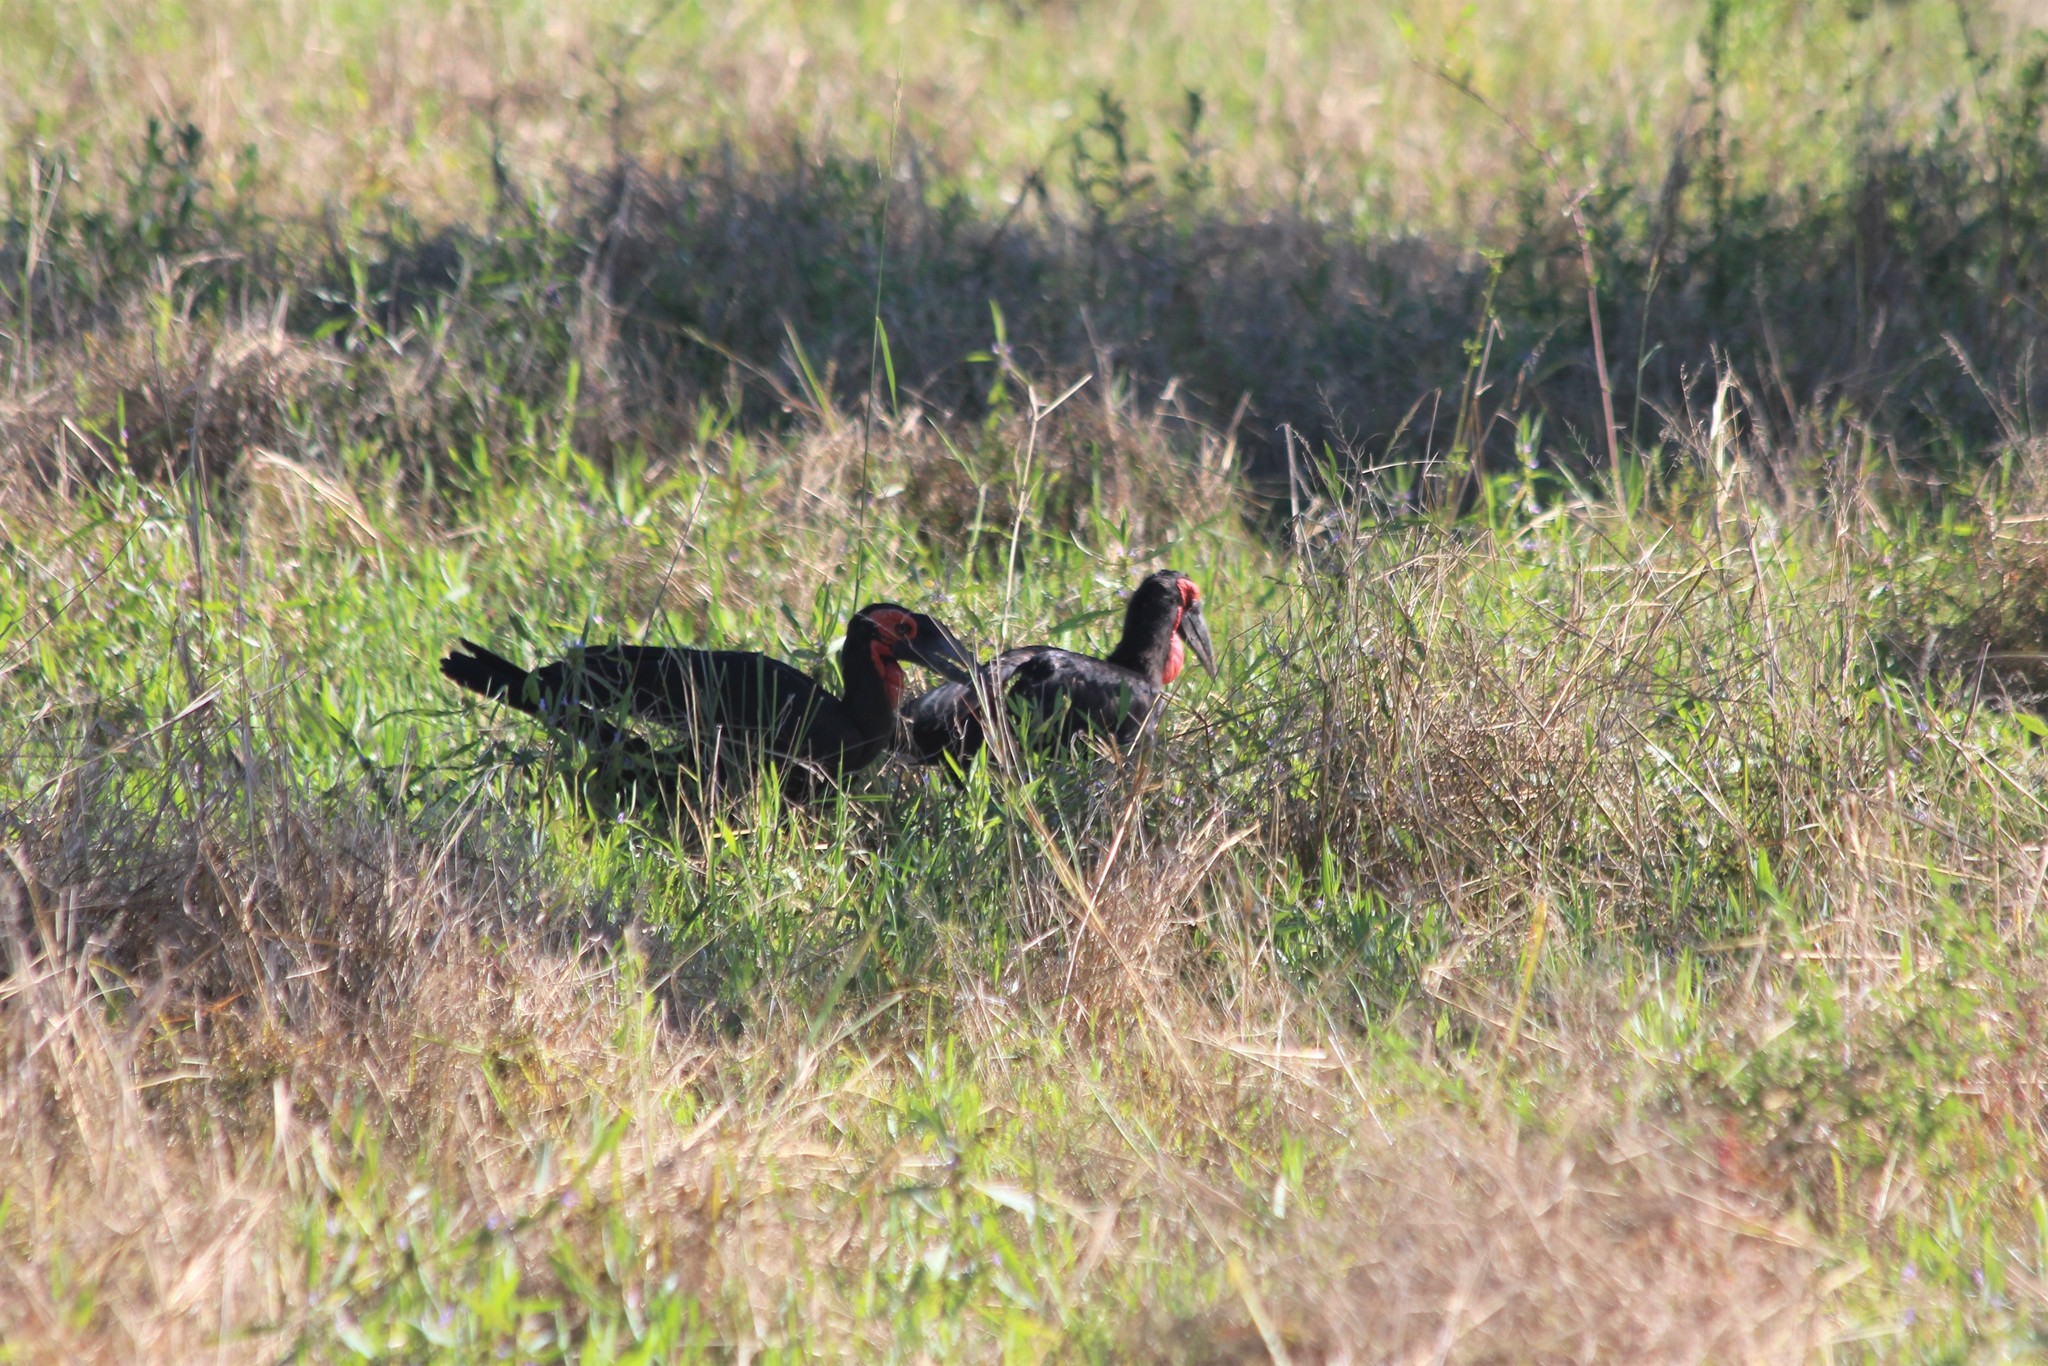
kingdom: Animalia
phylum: Chordata
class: Aves
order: Bucerotiformes
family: Bucorvidae
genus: Bucorvus
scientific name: Bucorvus leadbeateri
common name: Southern ground-hornbill
